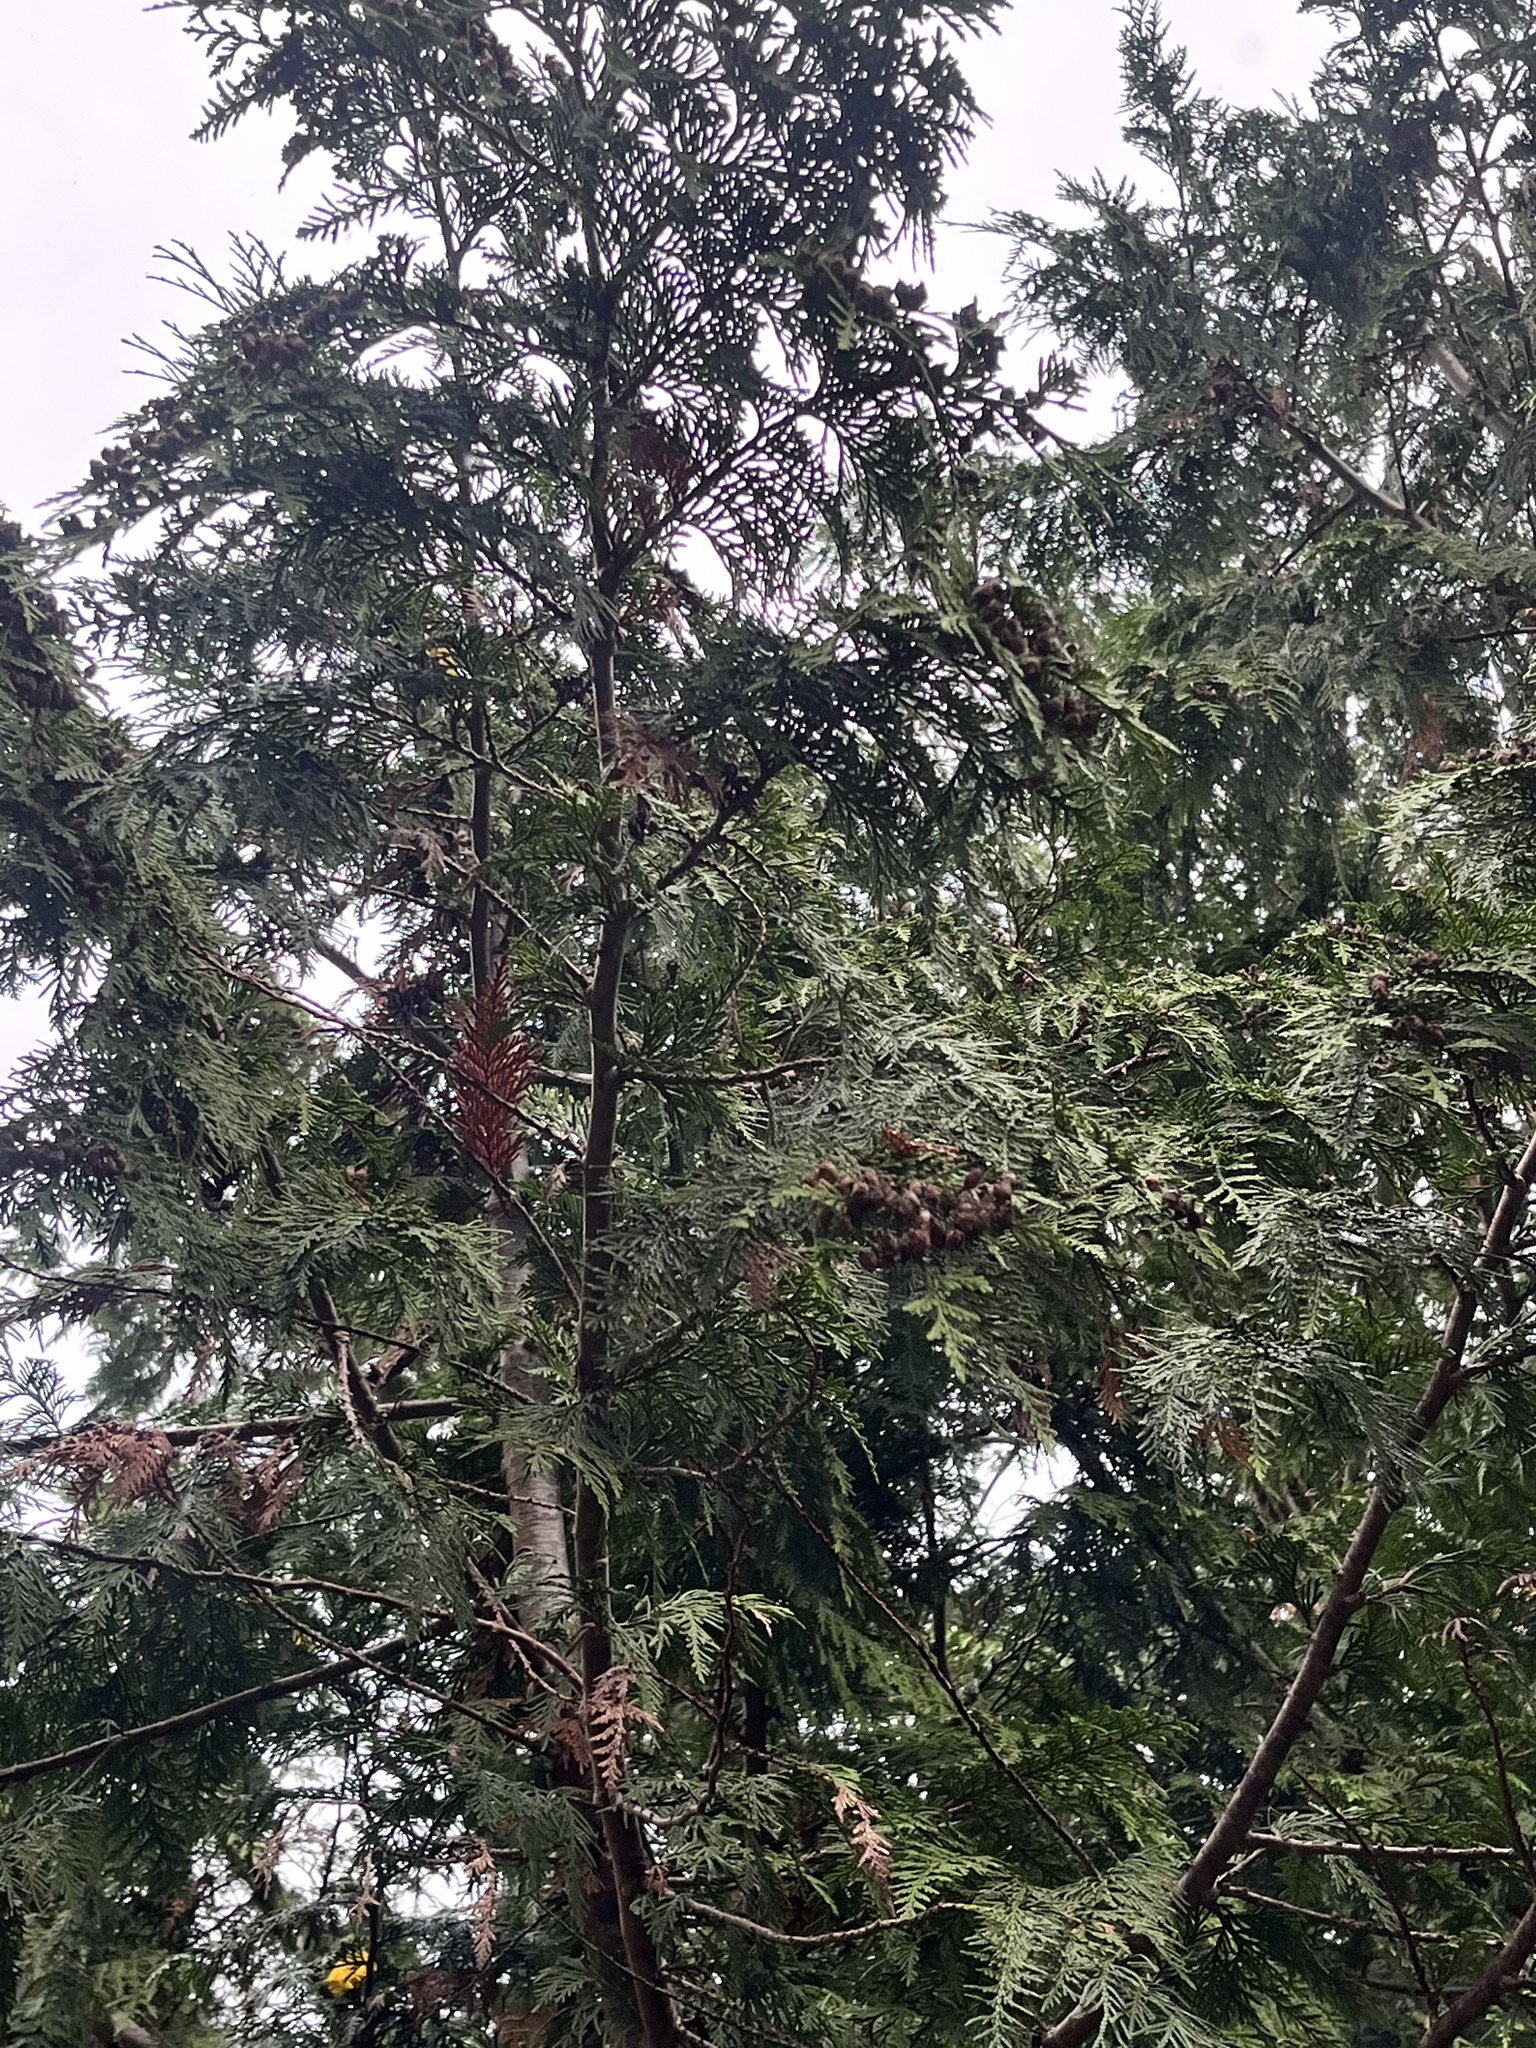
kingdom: Plantae
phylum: Tracheophyta
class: Pinopsida
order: Pinales
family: Cupressaceae
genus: Thuja
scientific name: Thuja plicata
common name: Western red-cedar
